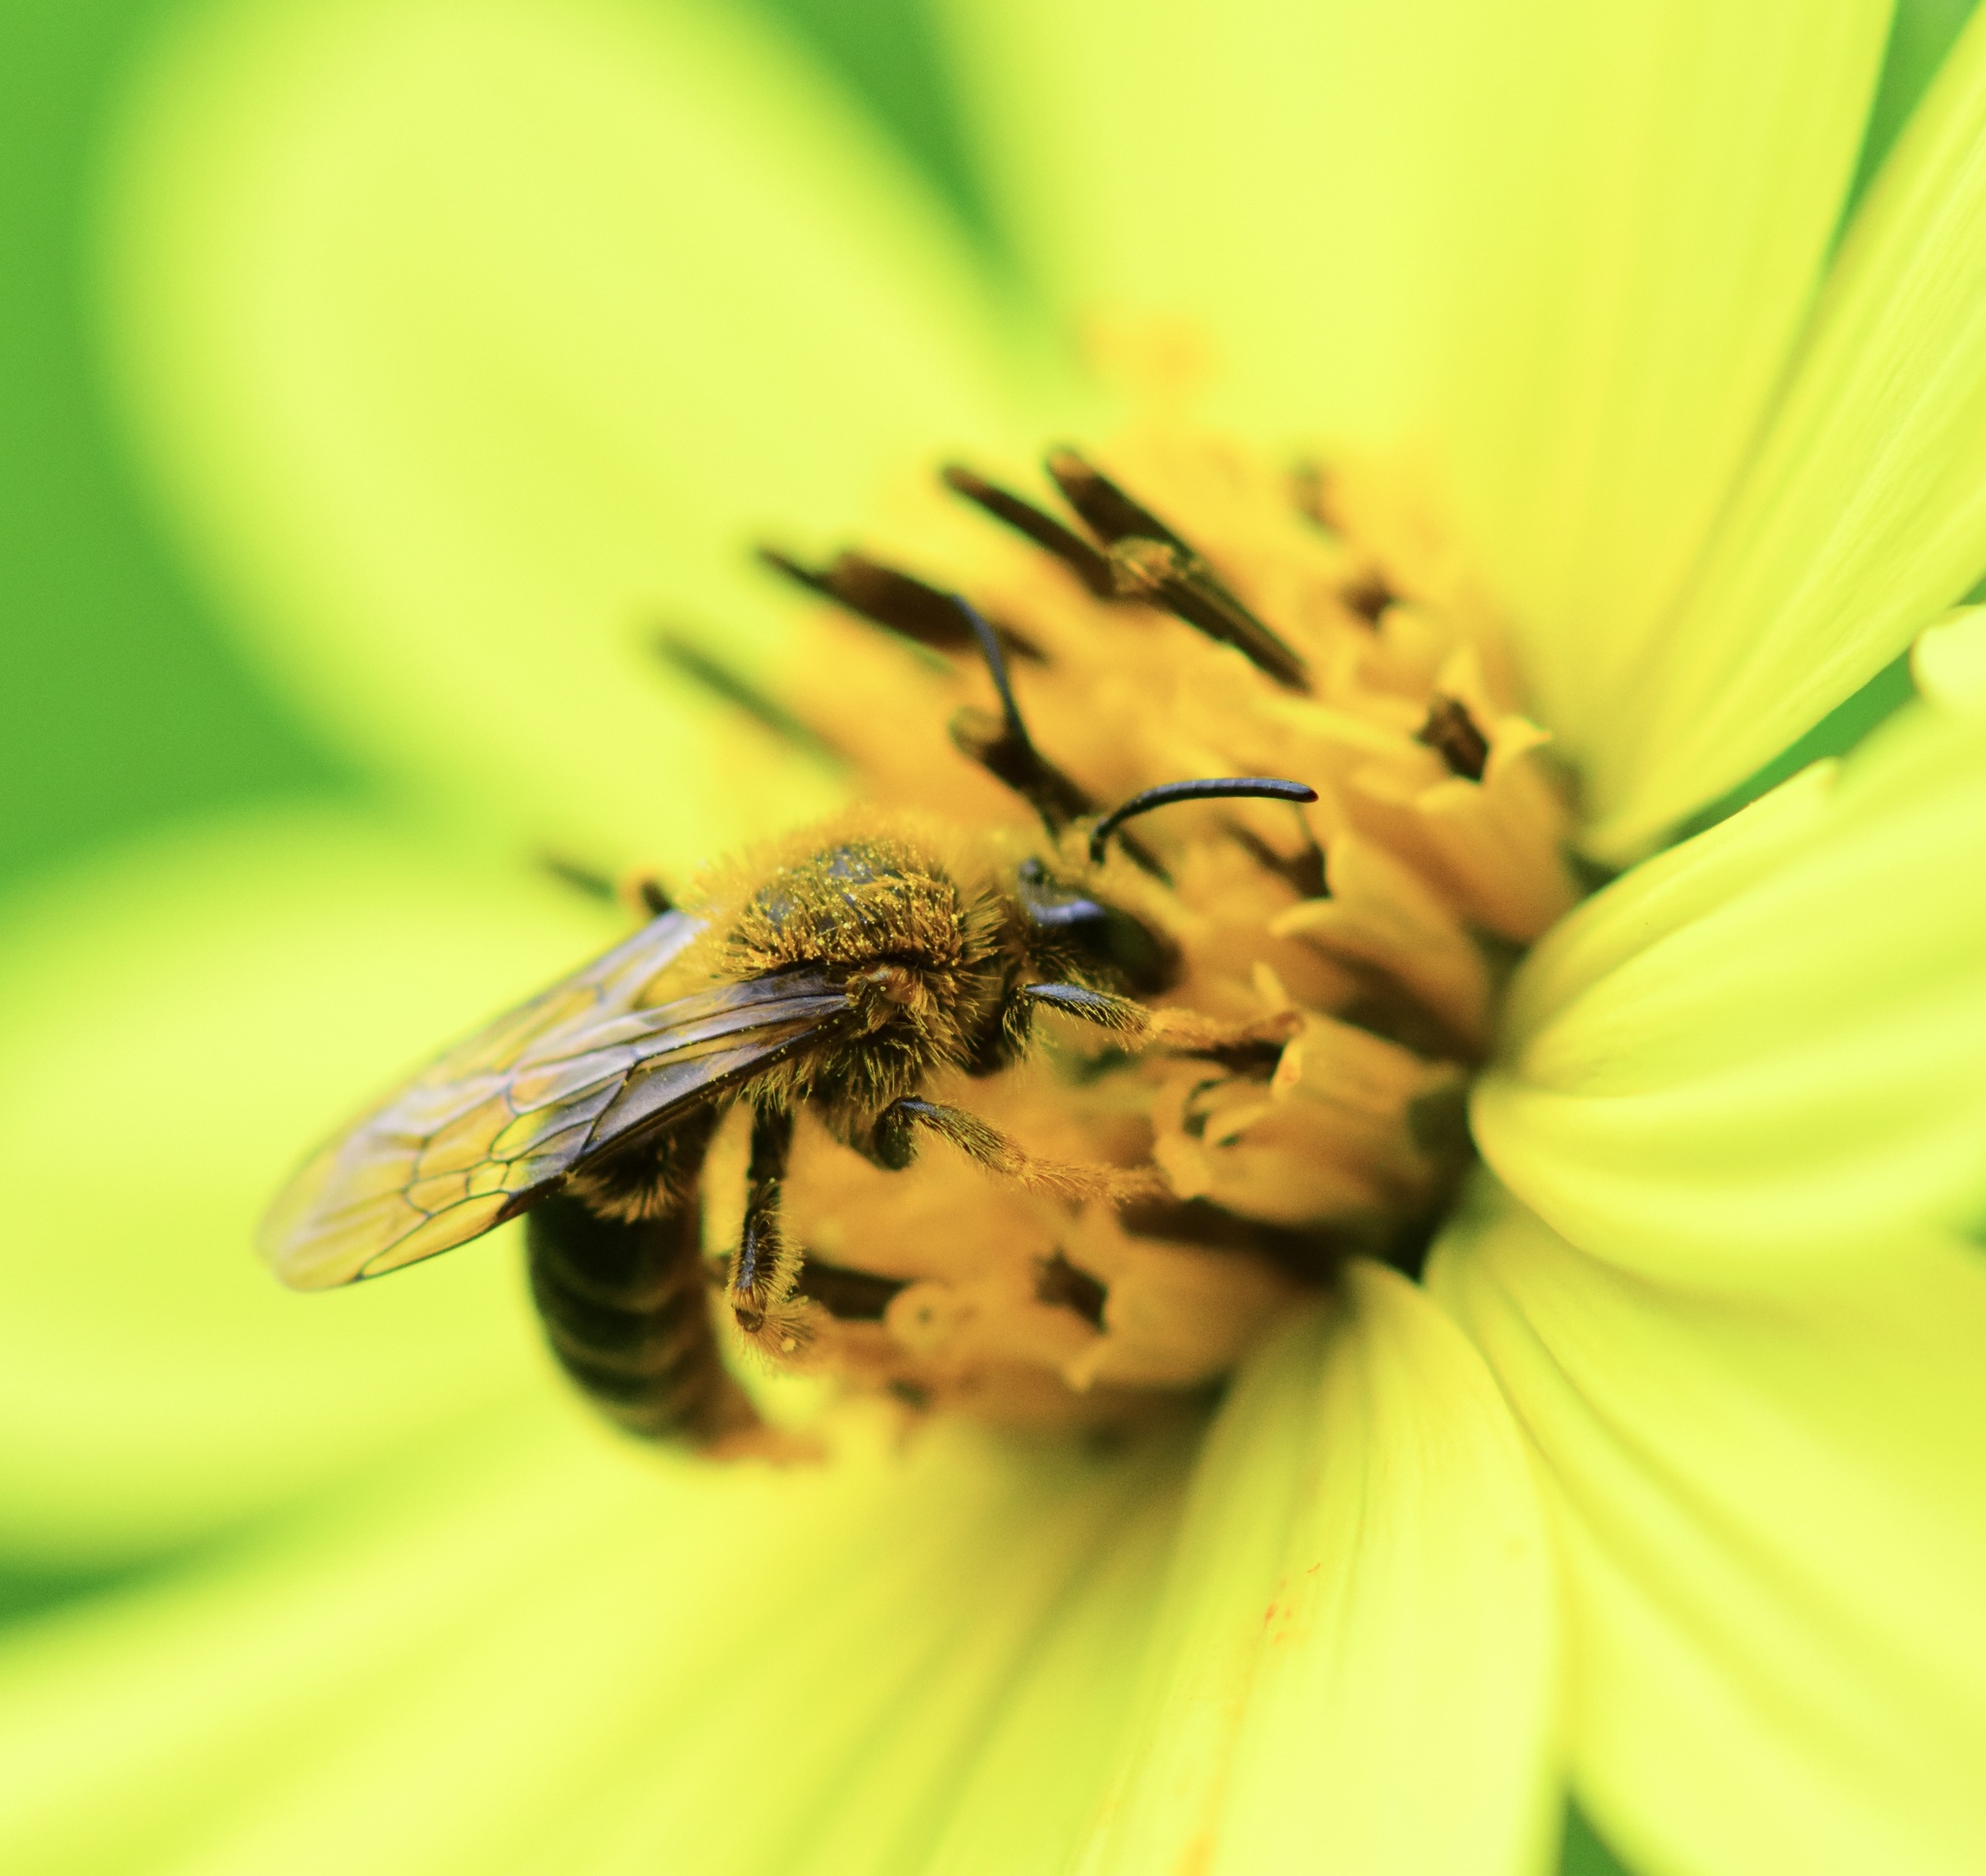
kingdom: Animalia
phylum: Arthropoda
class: Insecta
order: Hymenoptera
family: Andrenidae
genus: Andrena
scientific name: Andrena helianthi
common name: Sunflower mining bee
